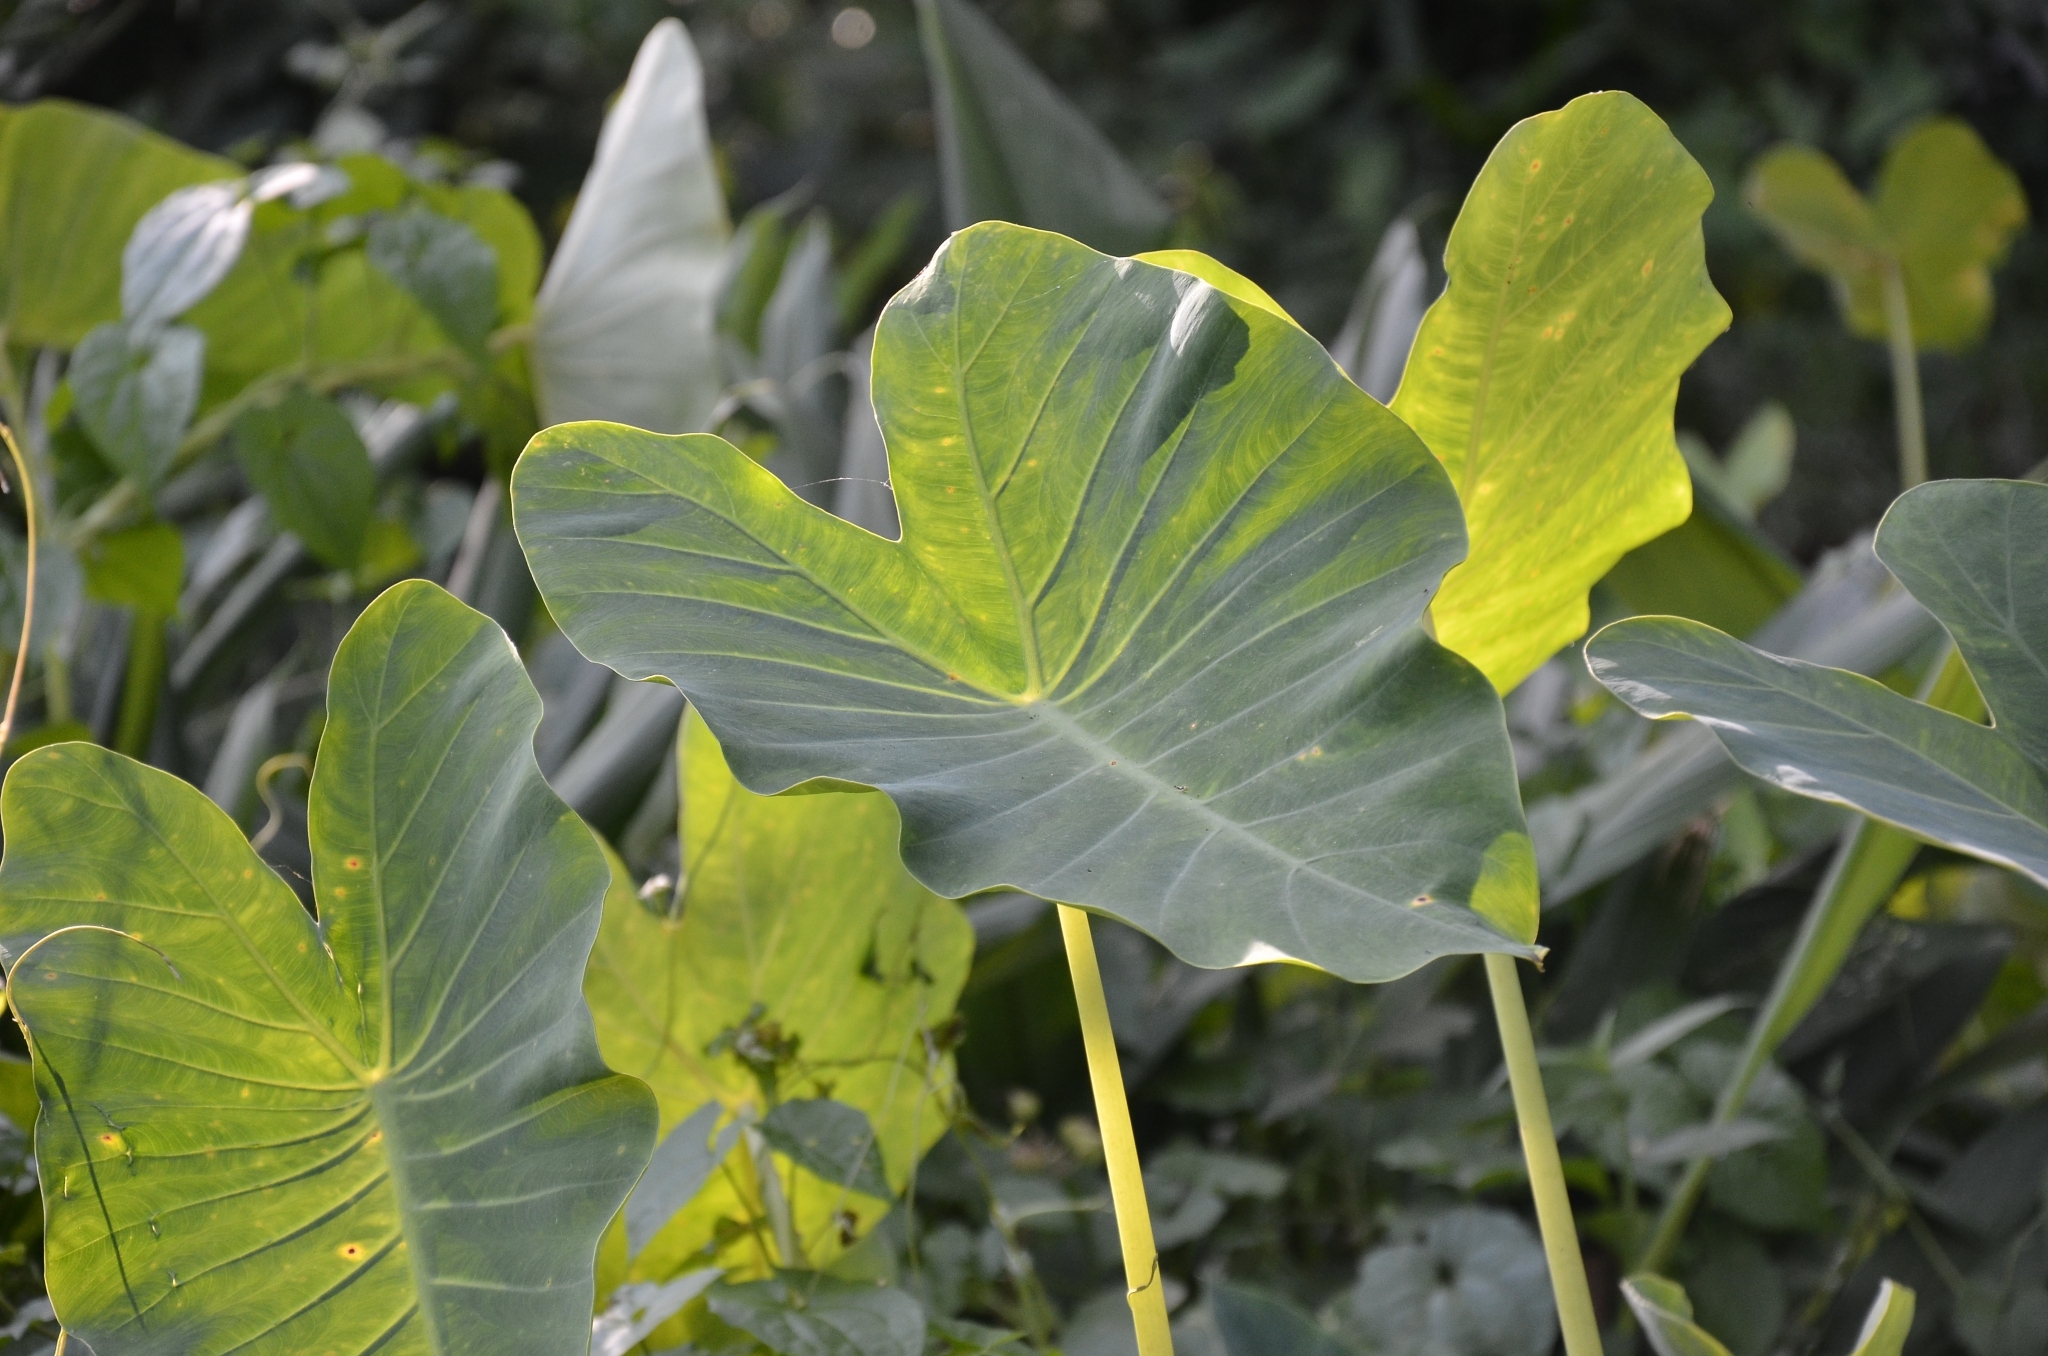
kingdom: Plantae
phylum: Tracheophyta
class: Liliopsida
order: Alismatales
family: Araceae
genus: Colocasia
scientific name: Colocasia esculenta
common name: Taro
